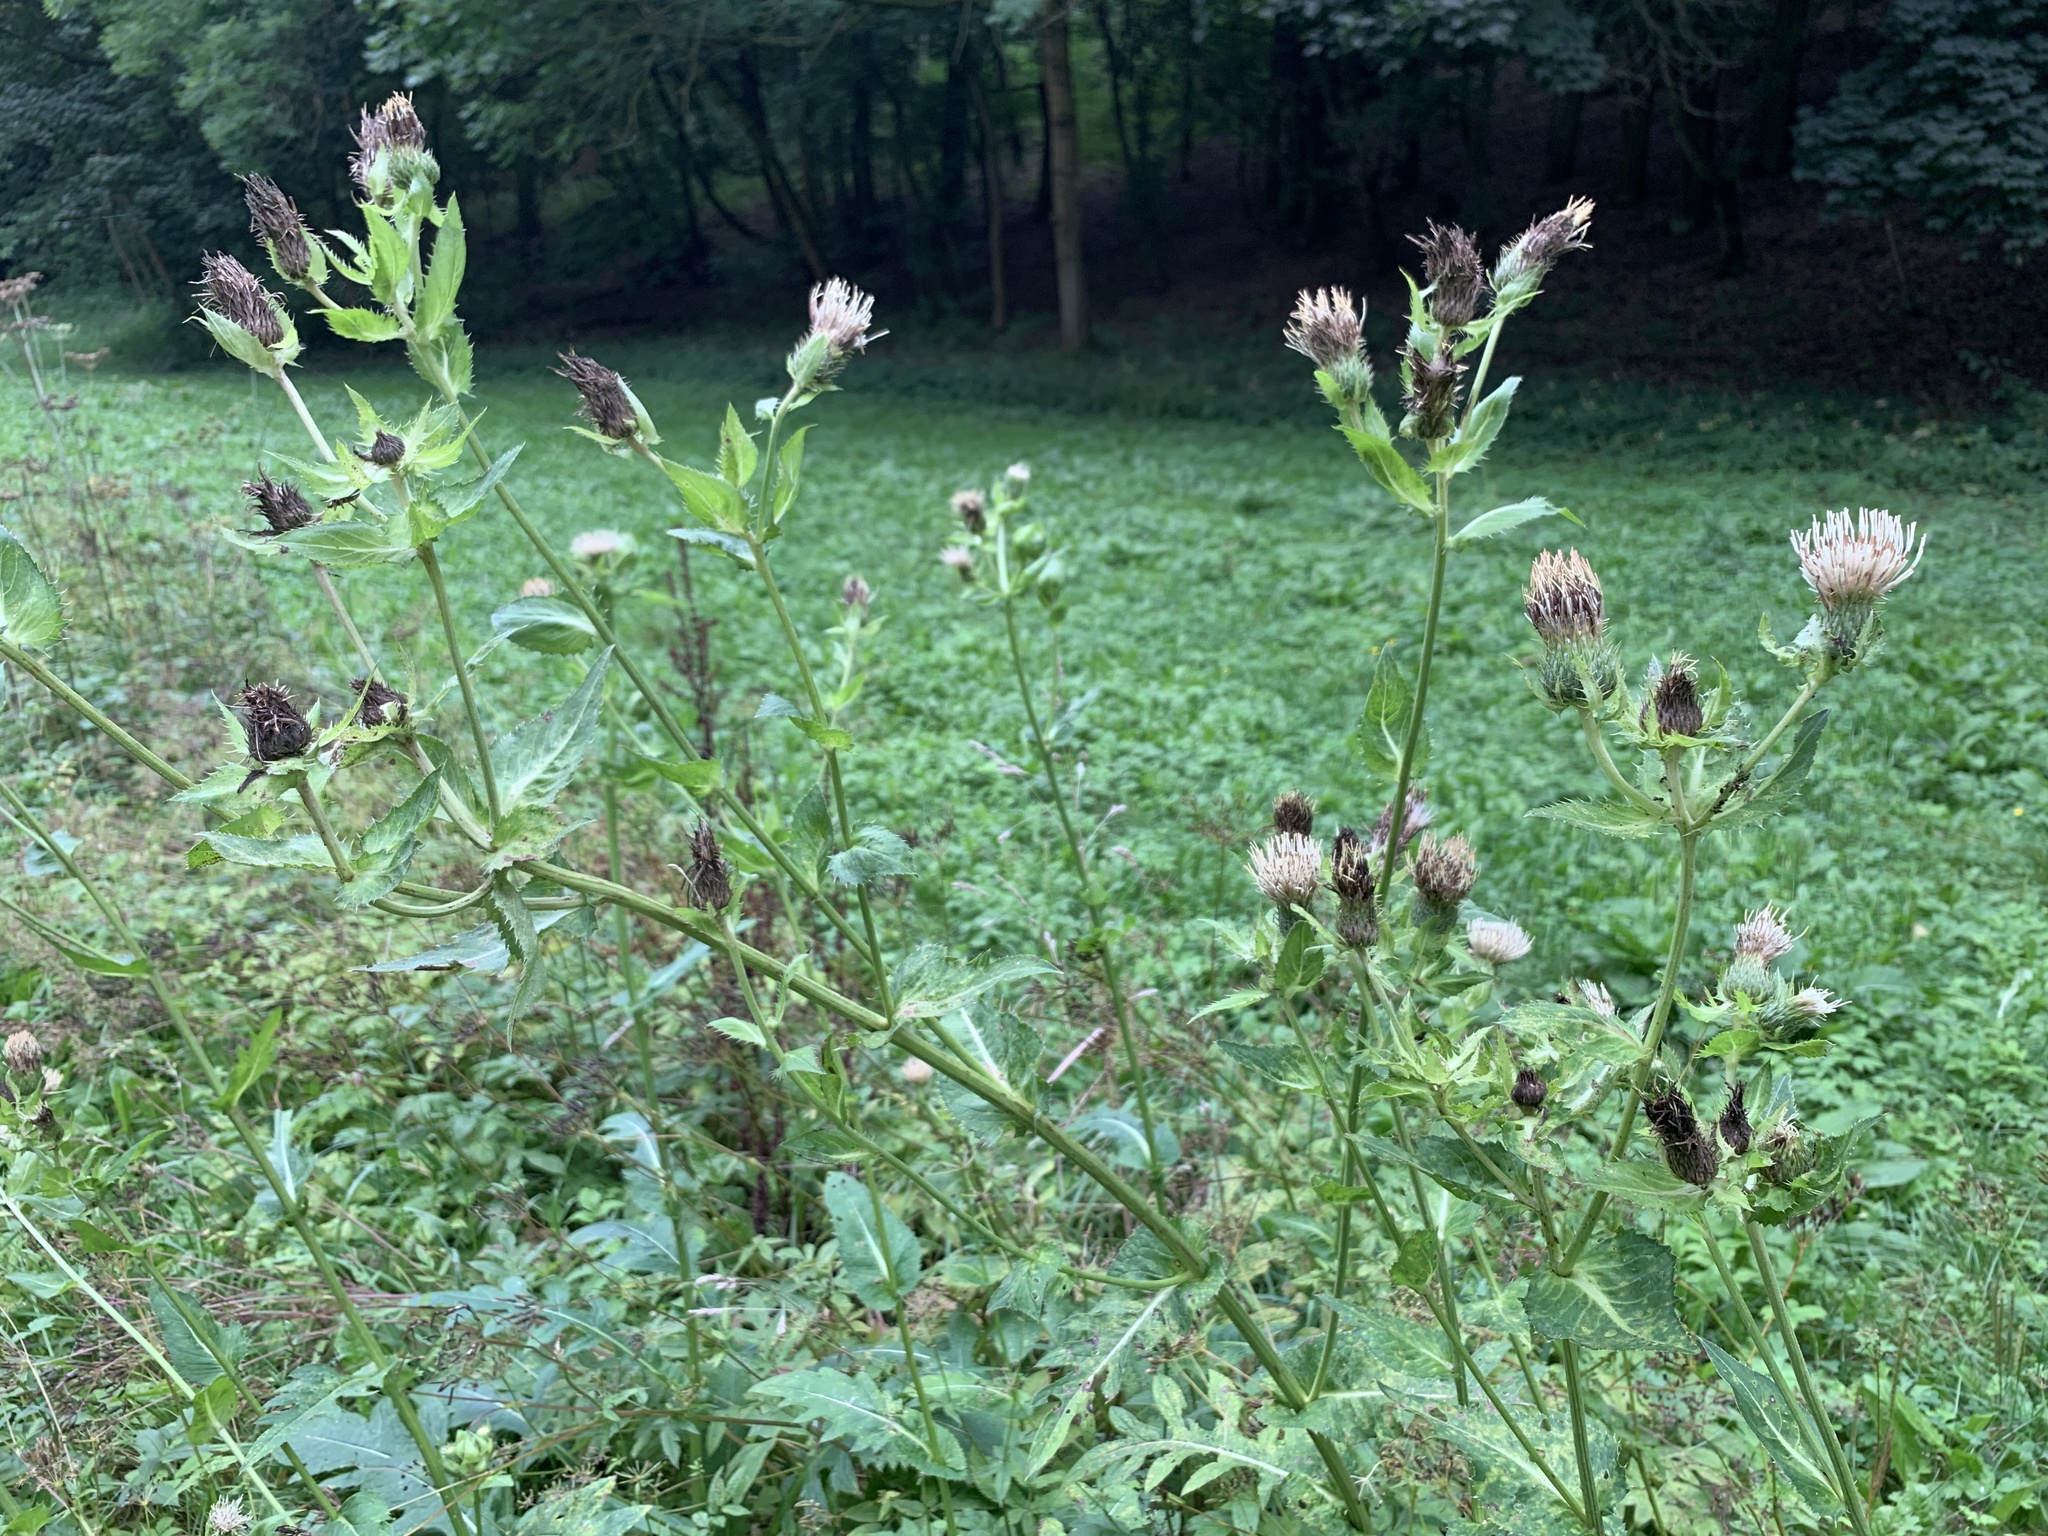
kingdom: Plantae
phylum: Tracheophyta
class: Magnoliopsida
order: Asterales
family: Asteraceae
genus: Cirsium
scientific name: Cirsium oleraceum
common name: Cabbage thistle
